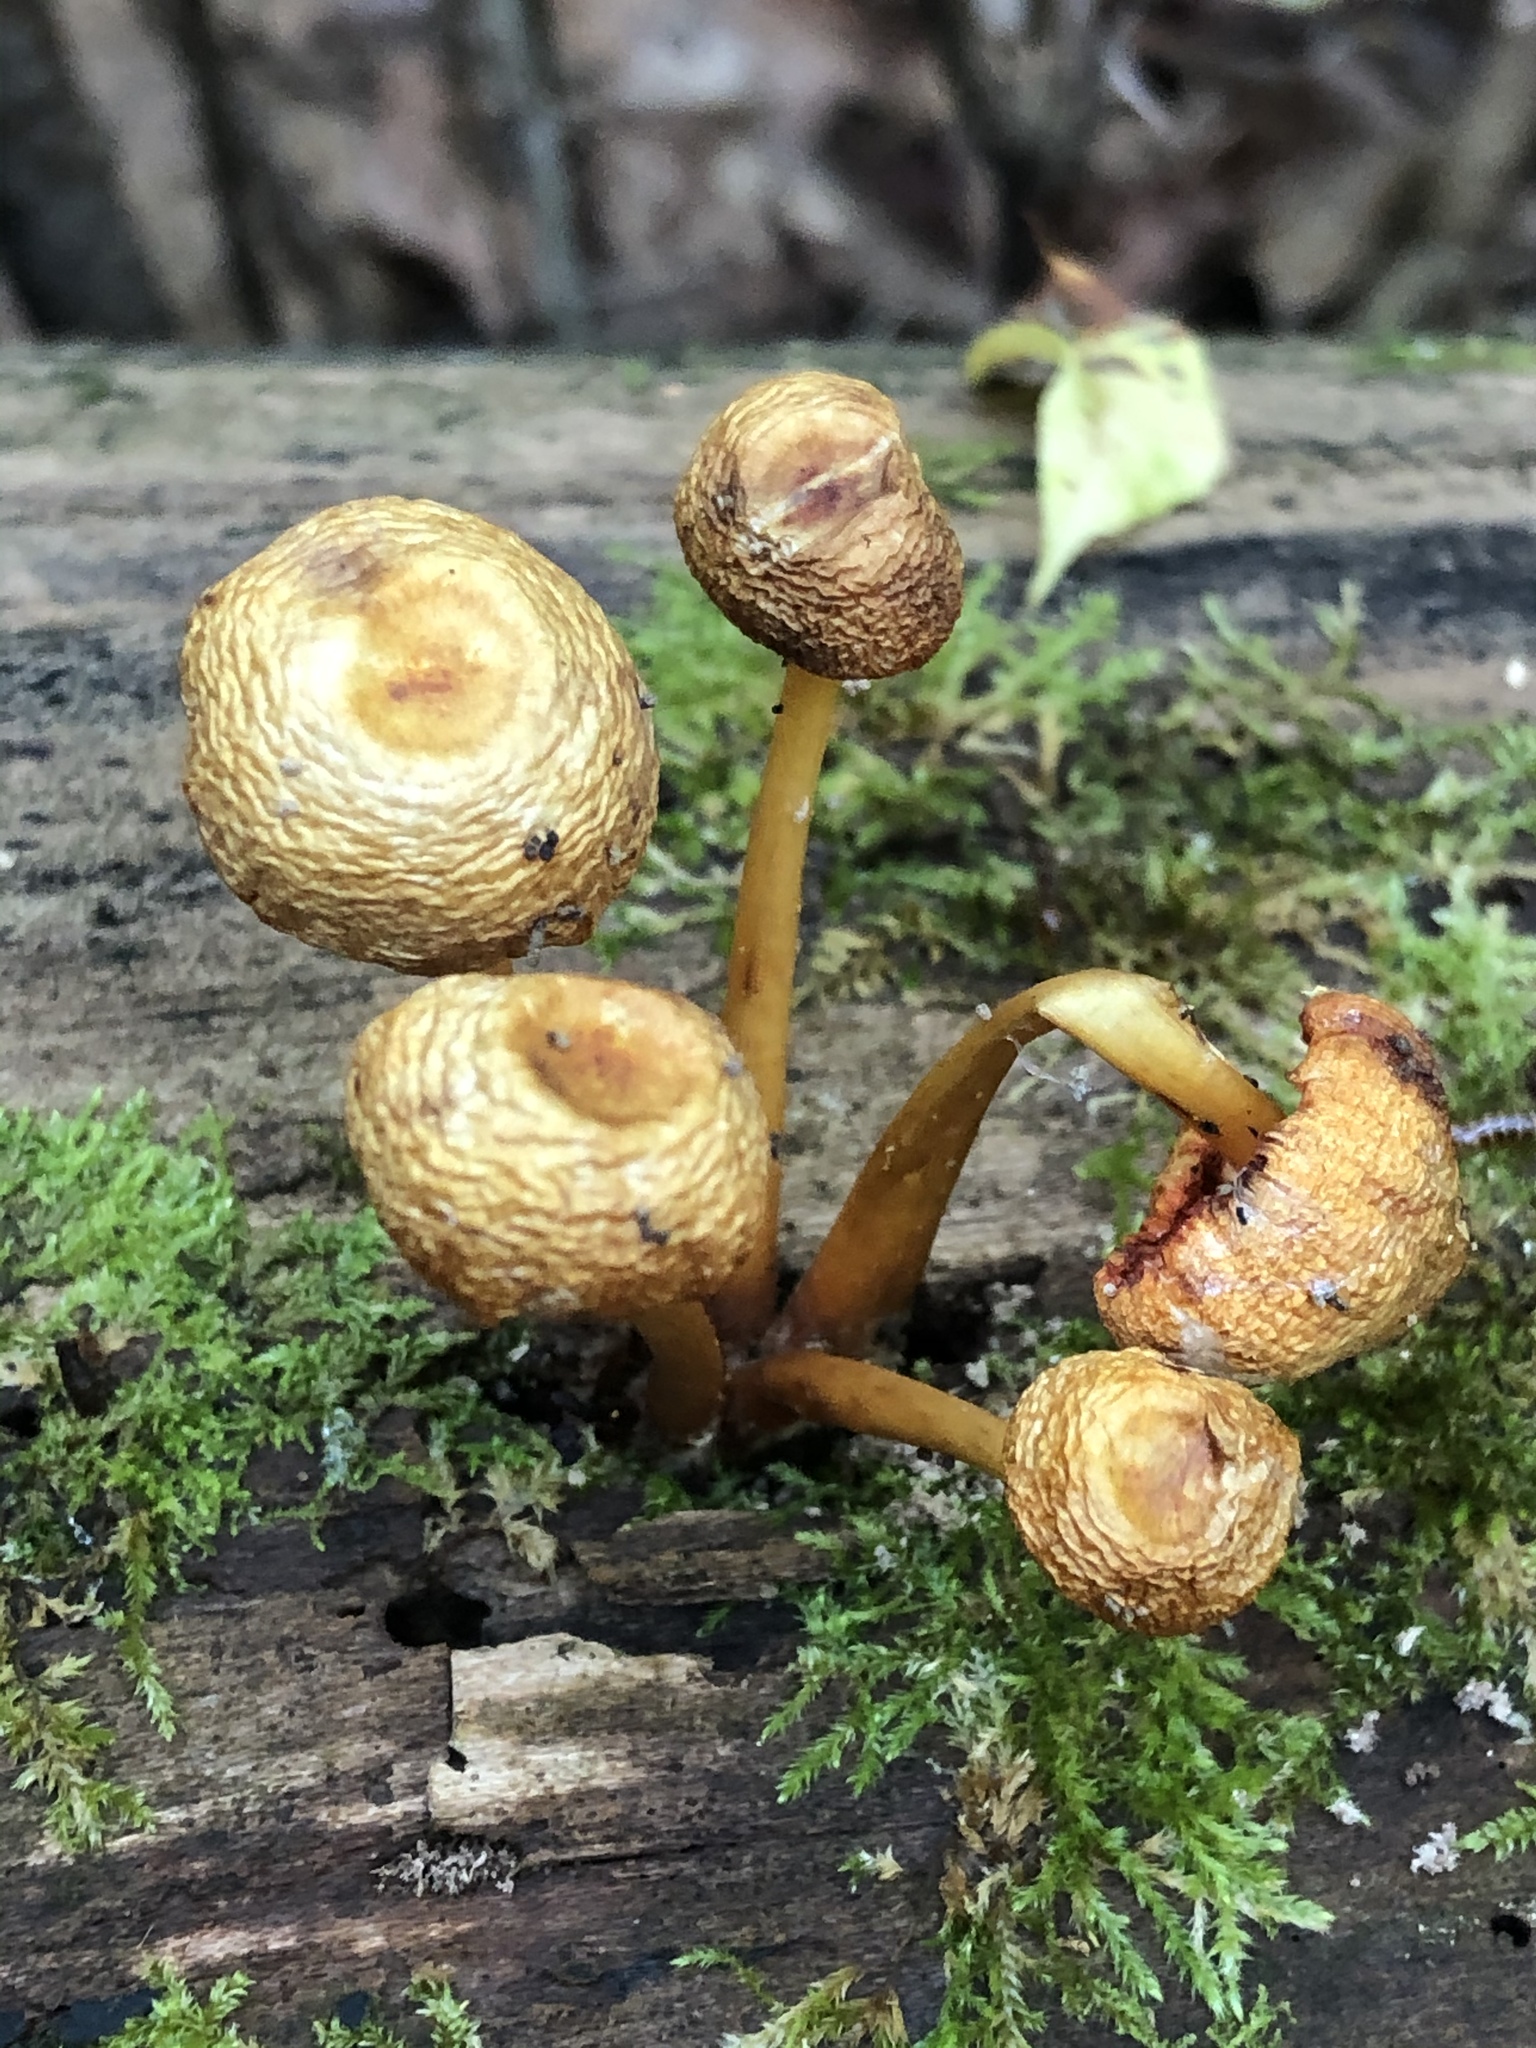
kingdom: Fungi
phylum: Basidiomycota
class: Agaricomycetes
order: Agaricales
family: Mycenaceae
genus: Mycena
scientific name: Mycena leaiana
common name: Orange mycena
